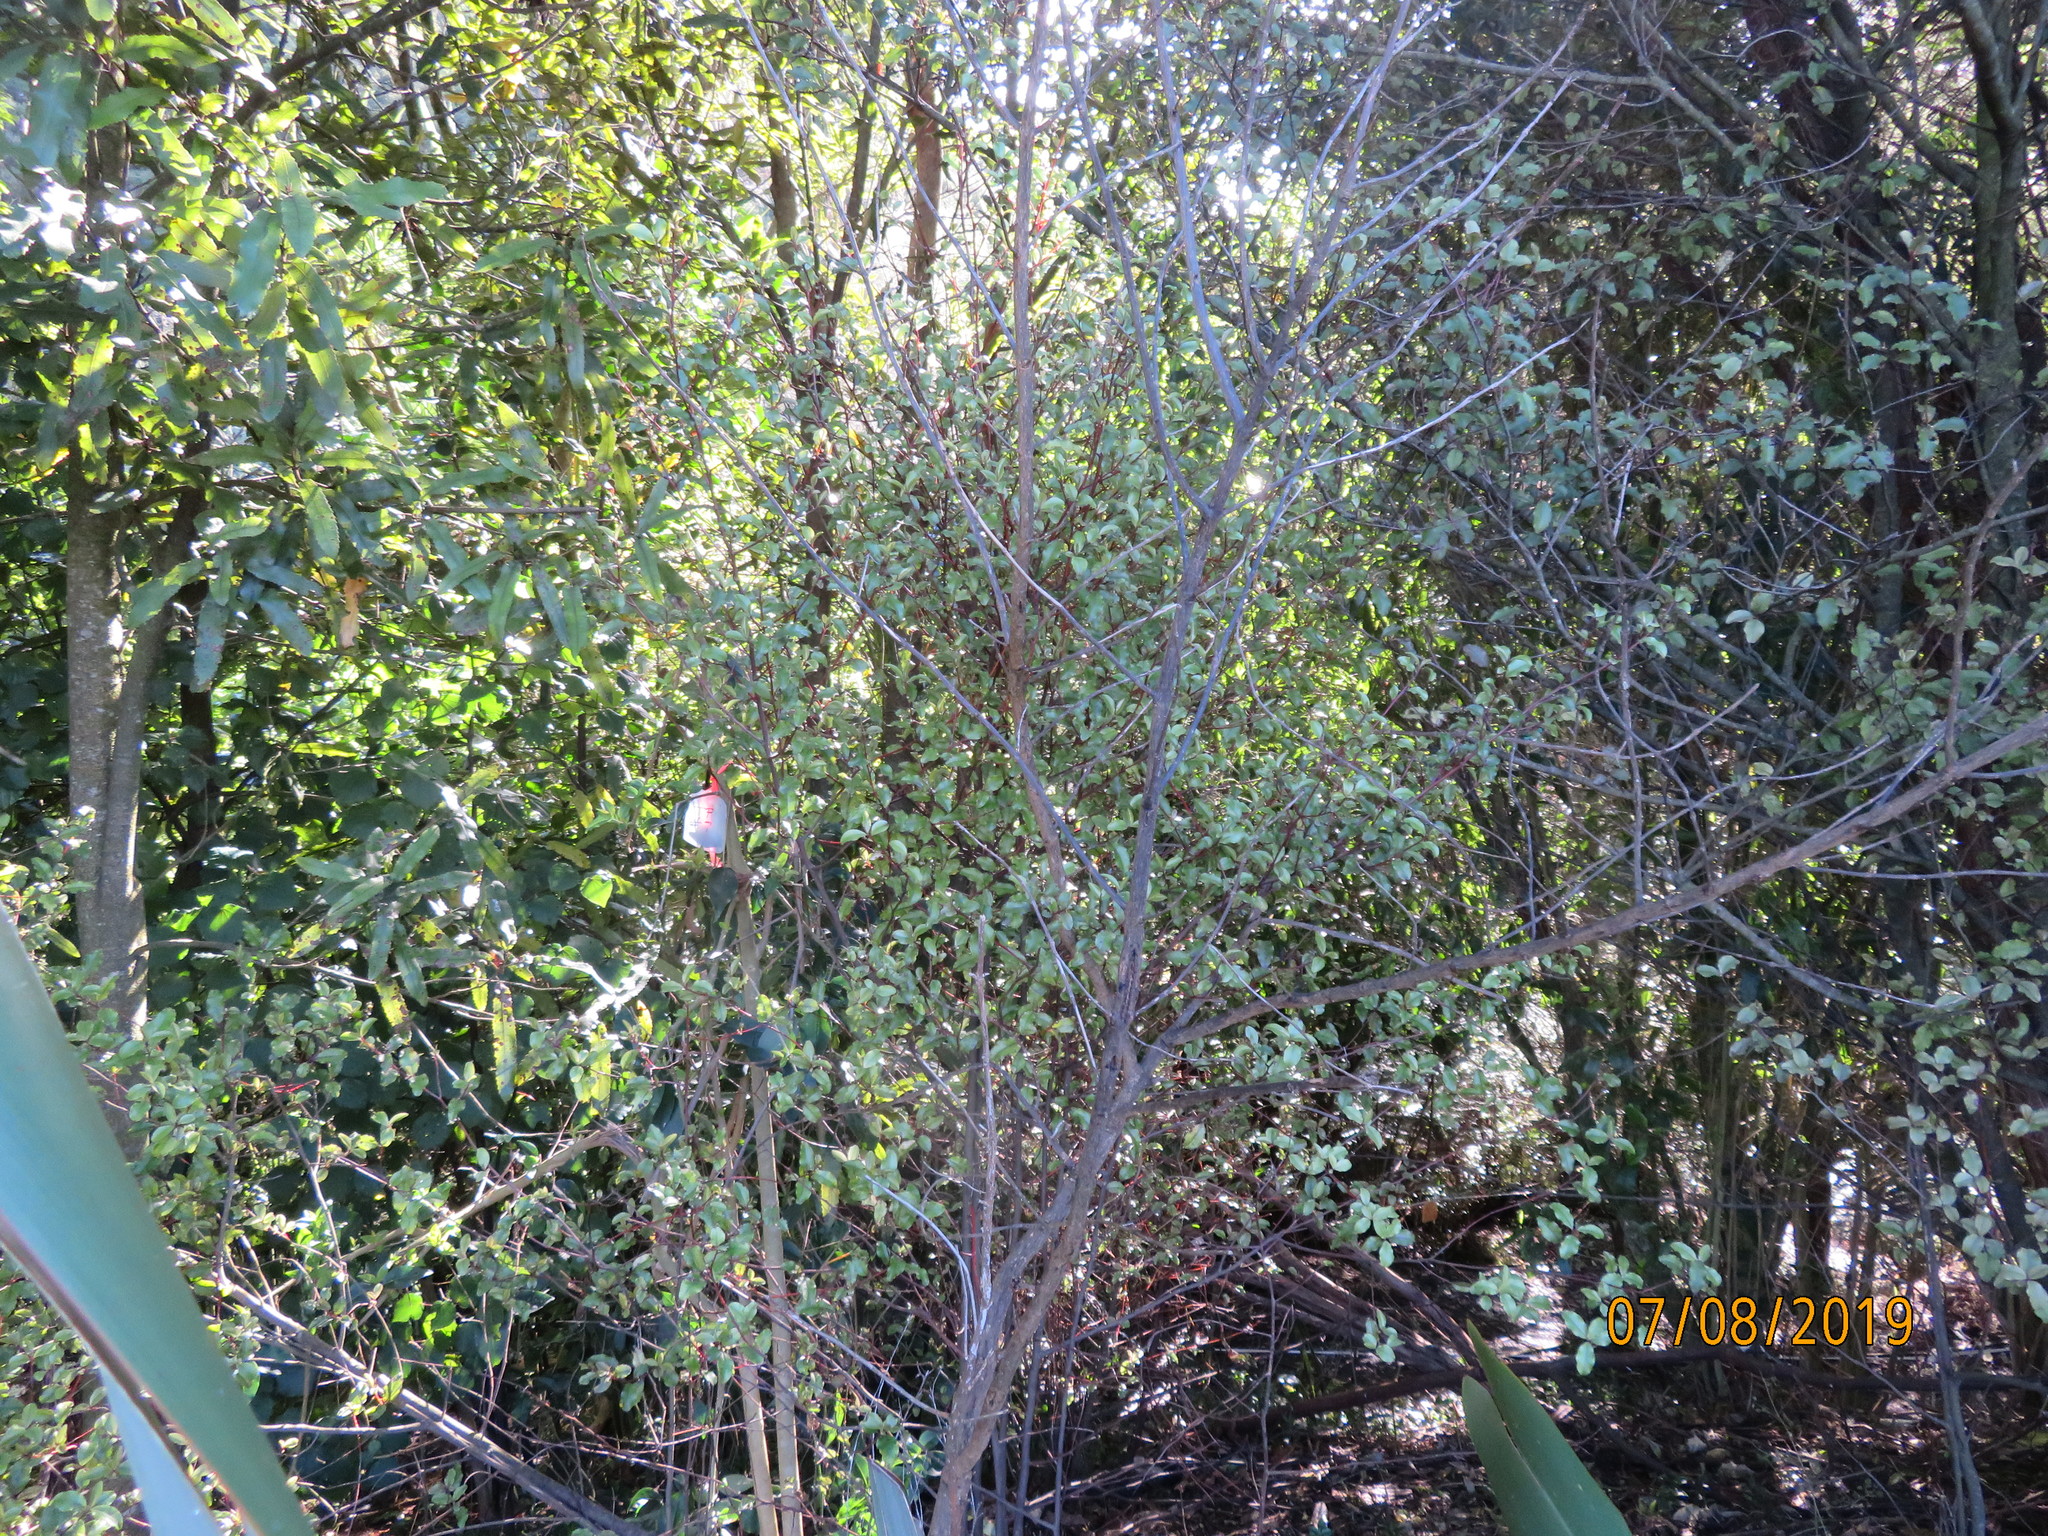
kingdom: Plantae
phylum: Tracheophyta
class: Magnoliopsida
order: Ericales
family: Primulaceae
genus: Myrsine
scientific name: Myrsine australis
